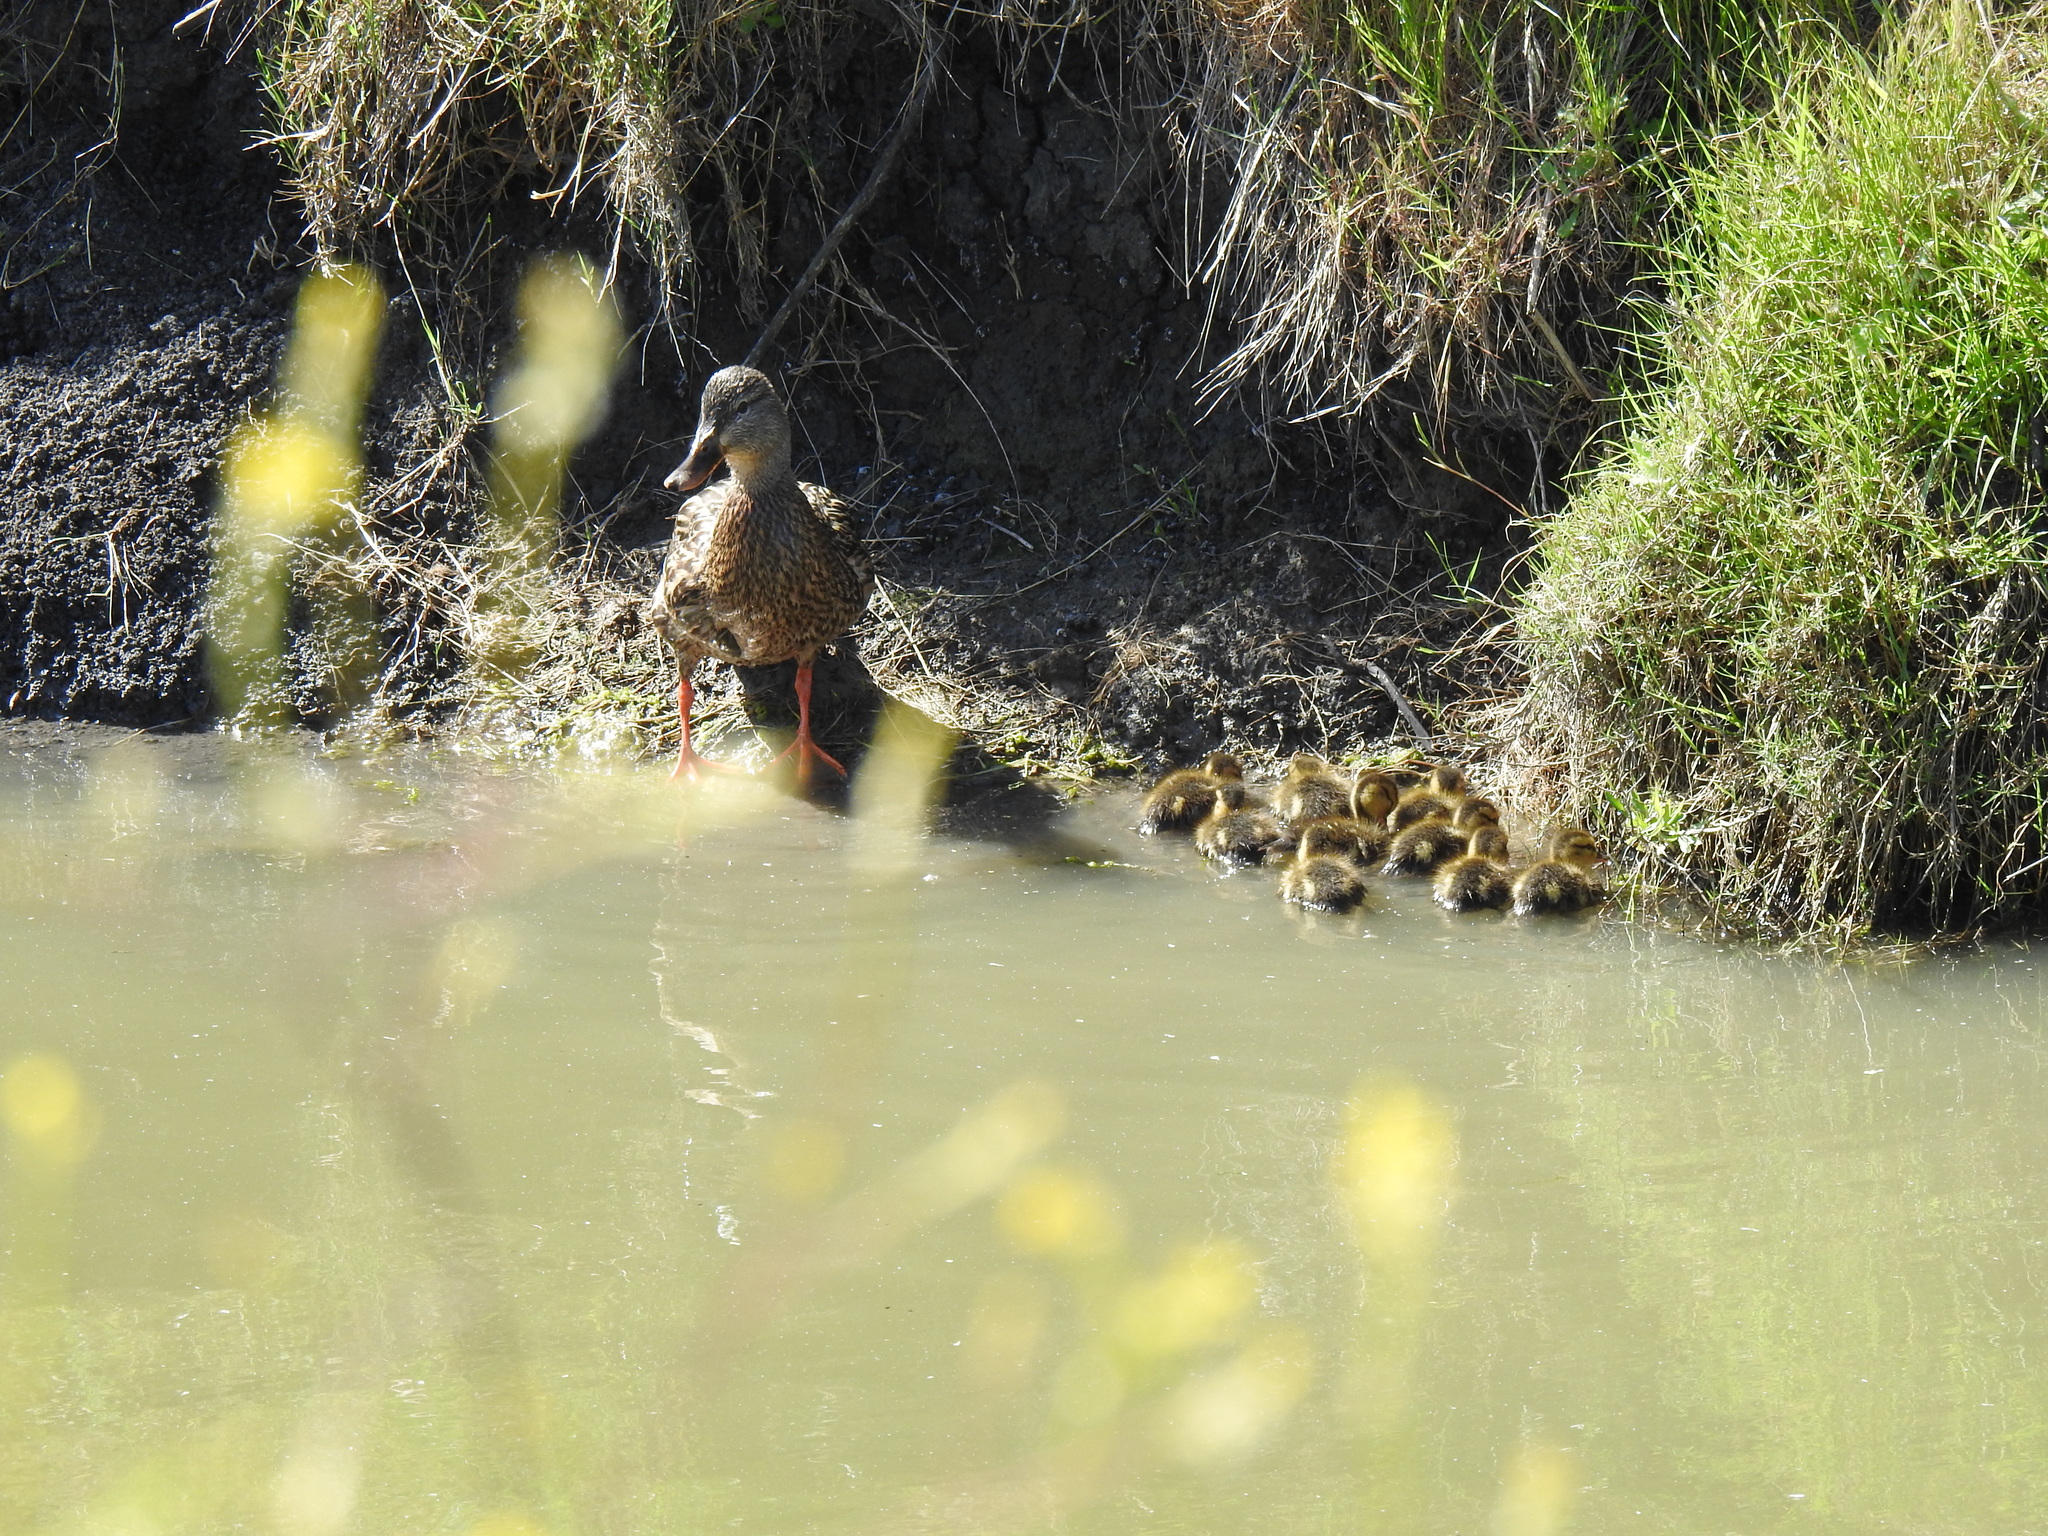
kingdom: Animalia
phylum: Chordata
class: Aves
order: Anseriformes
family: Anatidae
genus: Anas
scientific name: Anas platyrhynchos
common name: Mallard
